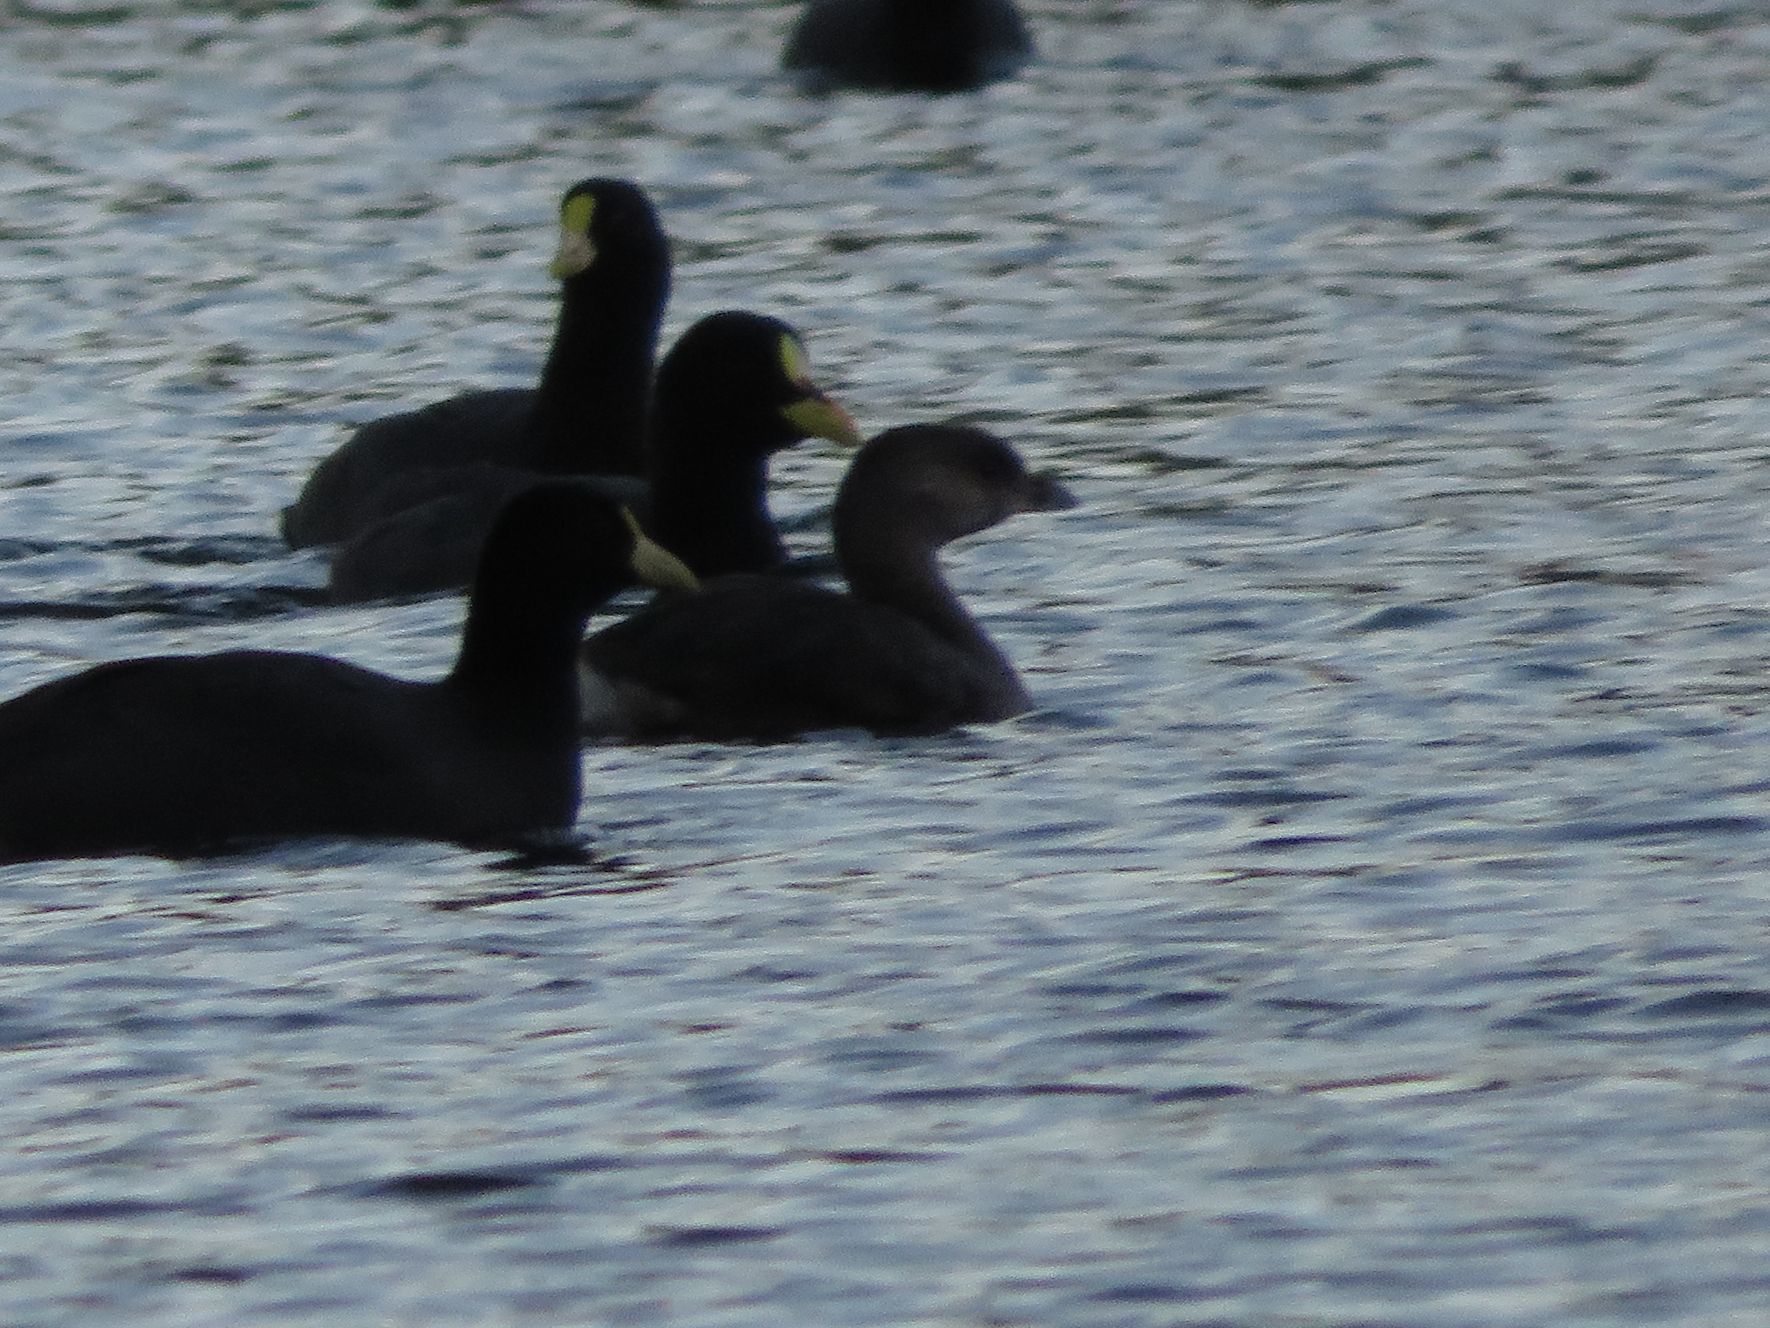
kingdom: Animalia
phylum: Chordata
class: Aves
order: Podicipediformes
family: Podicipedidae
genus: Podilymbus
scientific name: Podilymbus podiceps
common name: Pied-billed grebe
